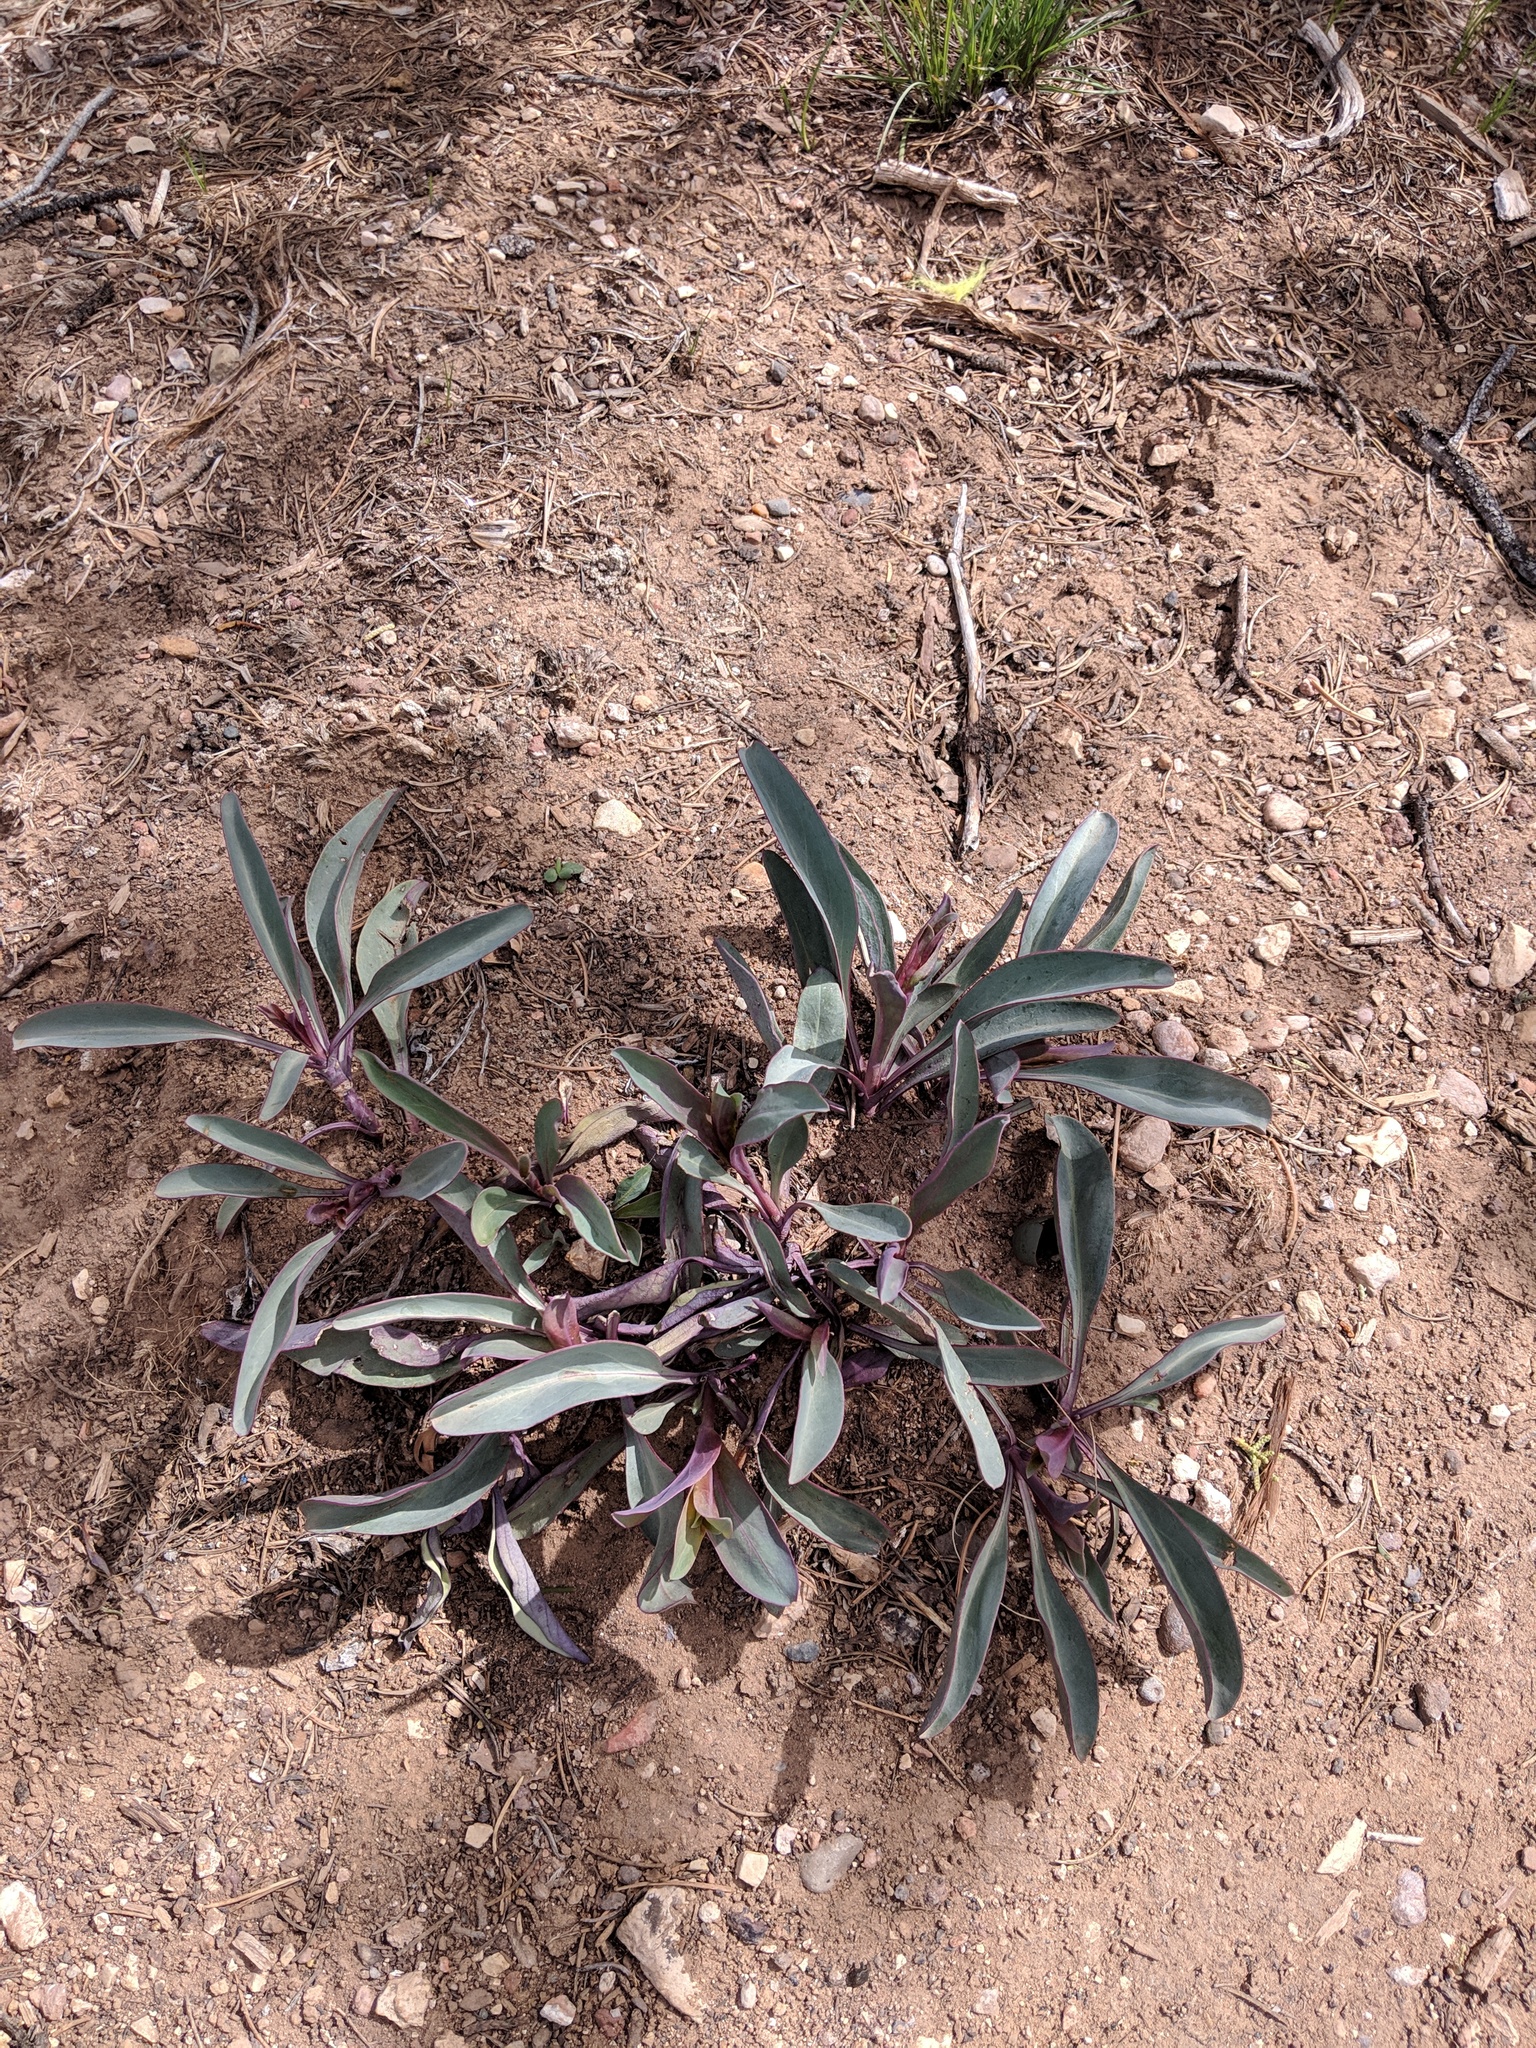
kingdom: Plantae
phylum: Tracheophyta
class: Magnoliopsida
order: Lamiales
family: Plantaginaceae
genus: Penstemon
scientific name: Penstemon pachyphyllus
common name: Thick-leaf penstemon
